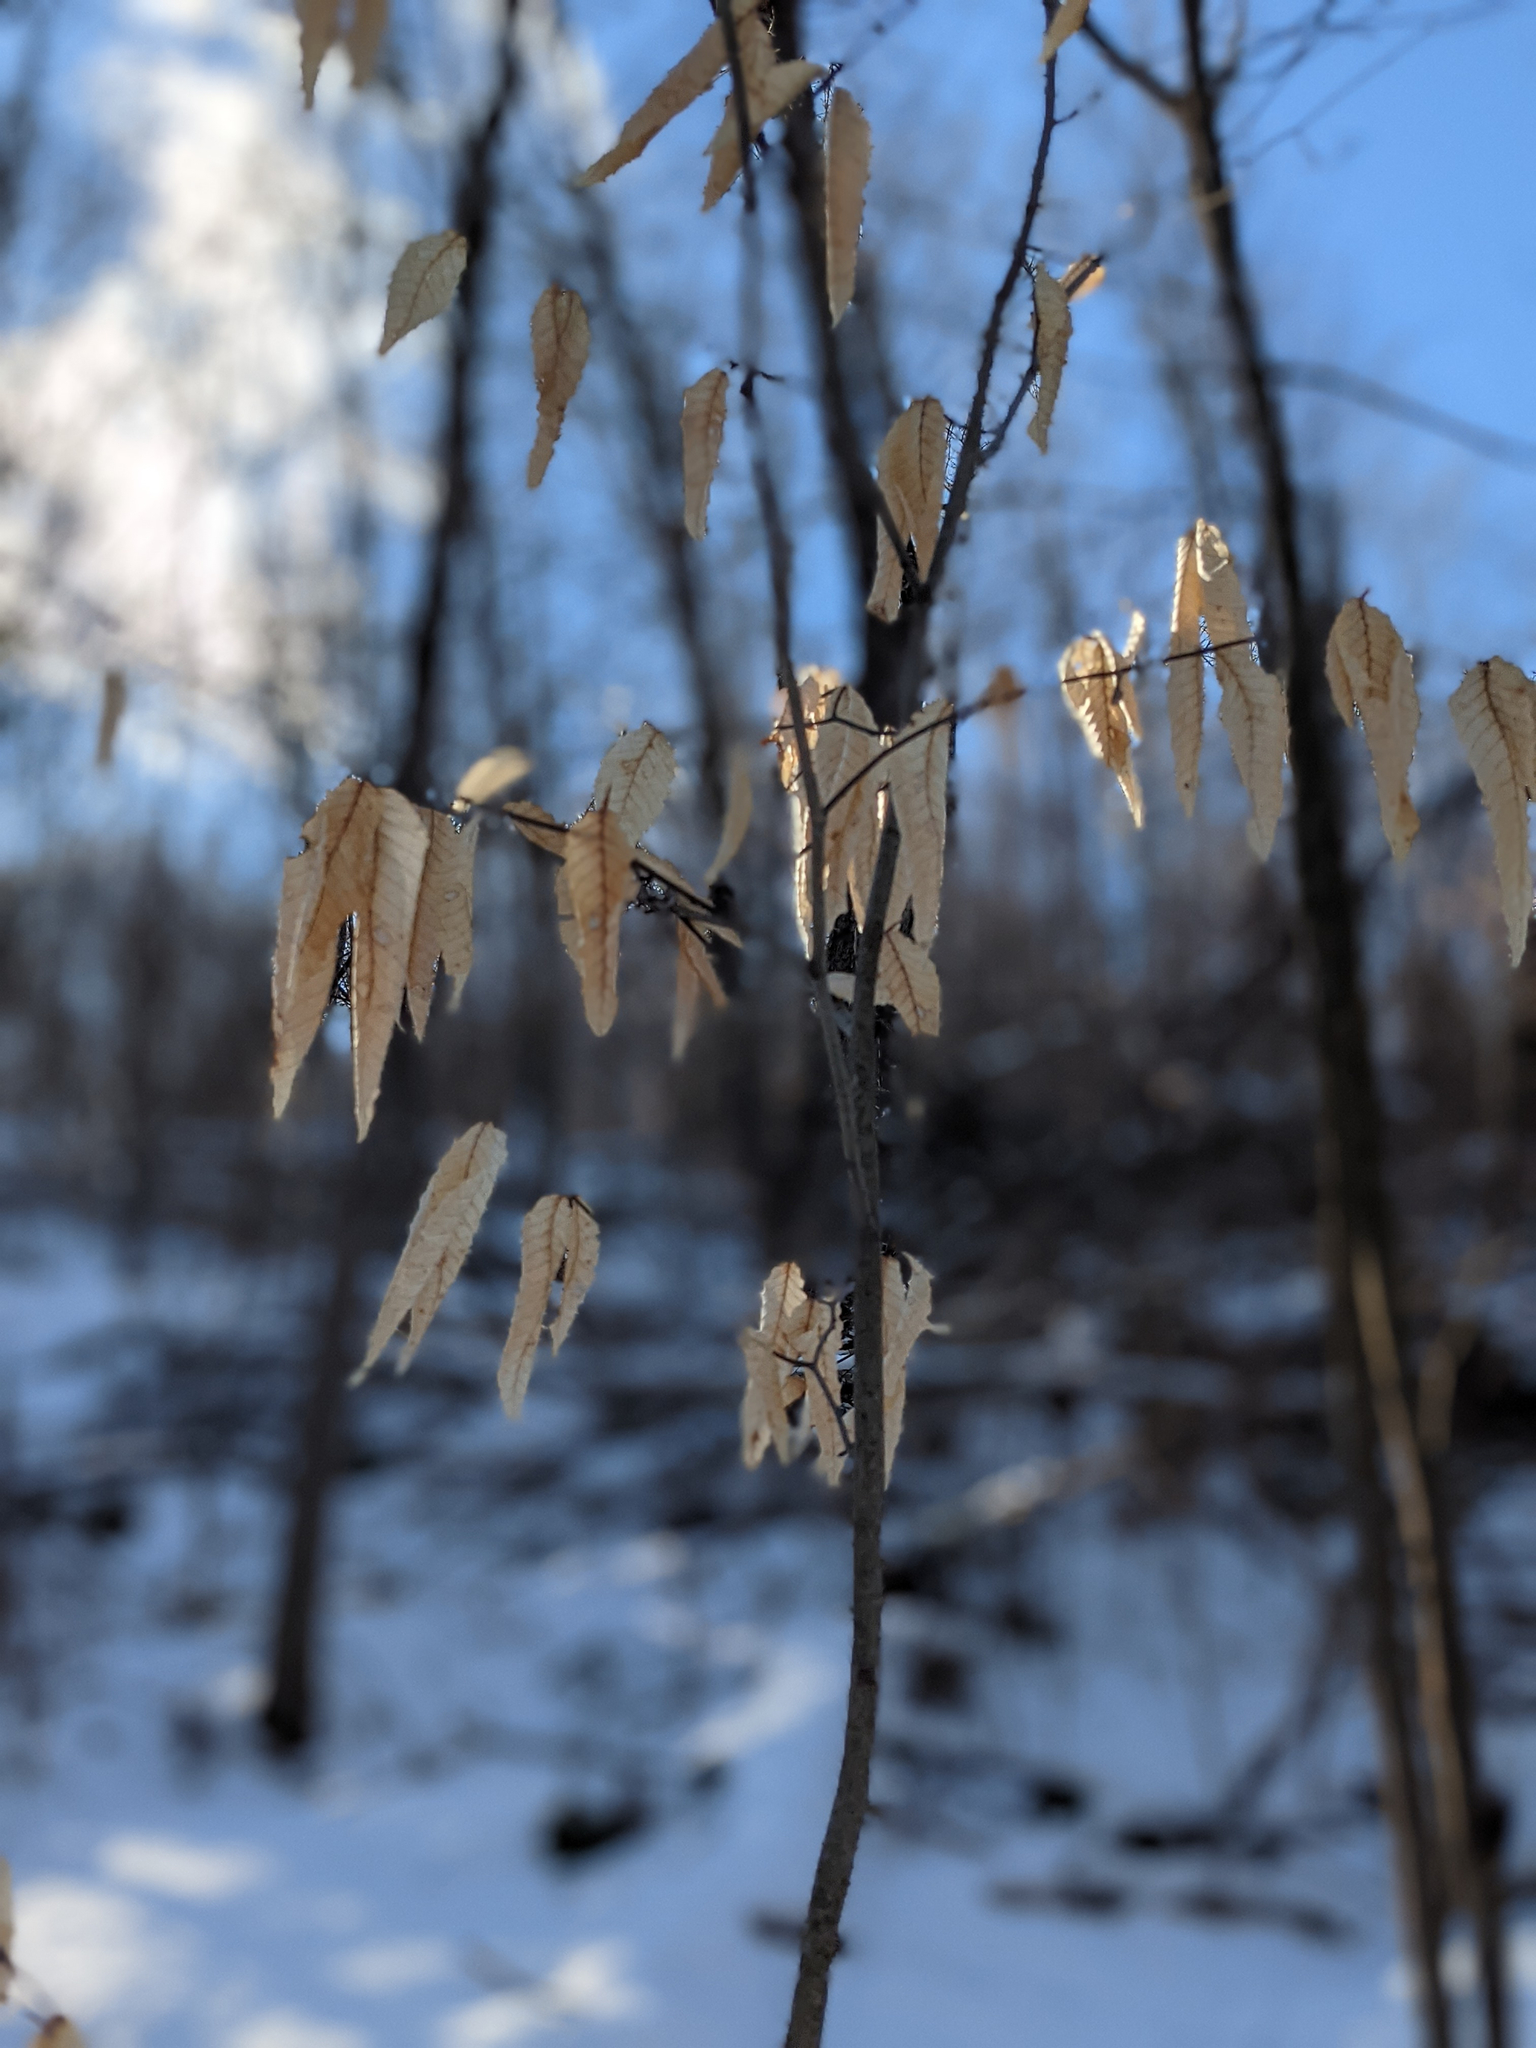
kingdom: Plantae
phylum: Tracheophyta
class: Magnoliopsida
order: Fagales
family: Fagaceae
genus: Fagus
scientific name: Fagus grandifolia
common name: American beech
